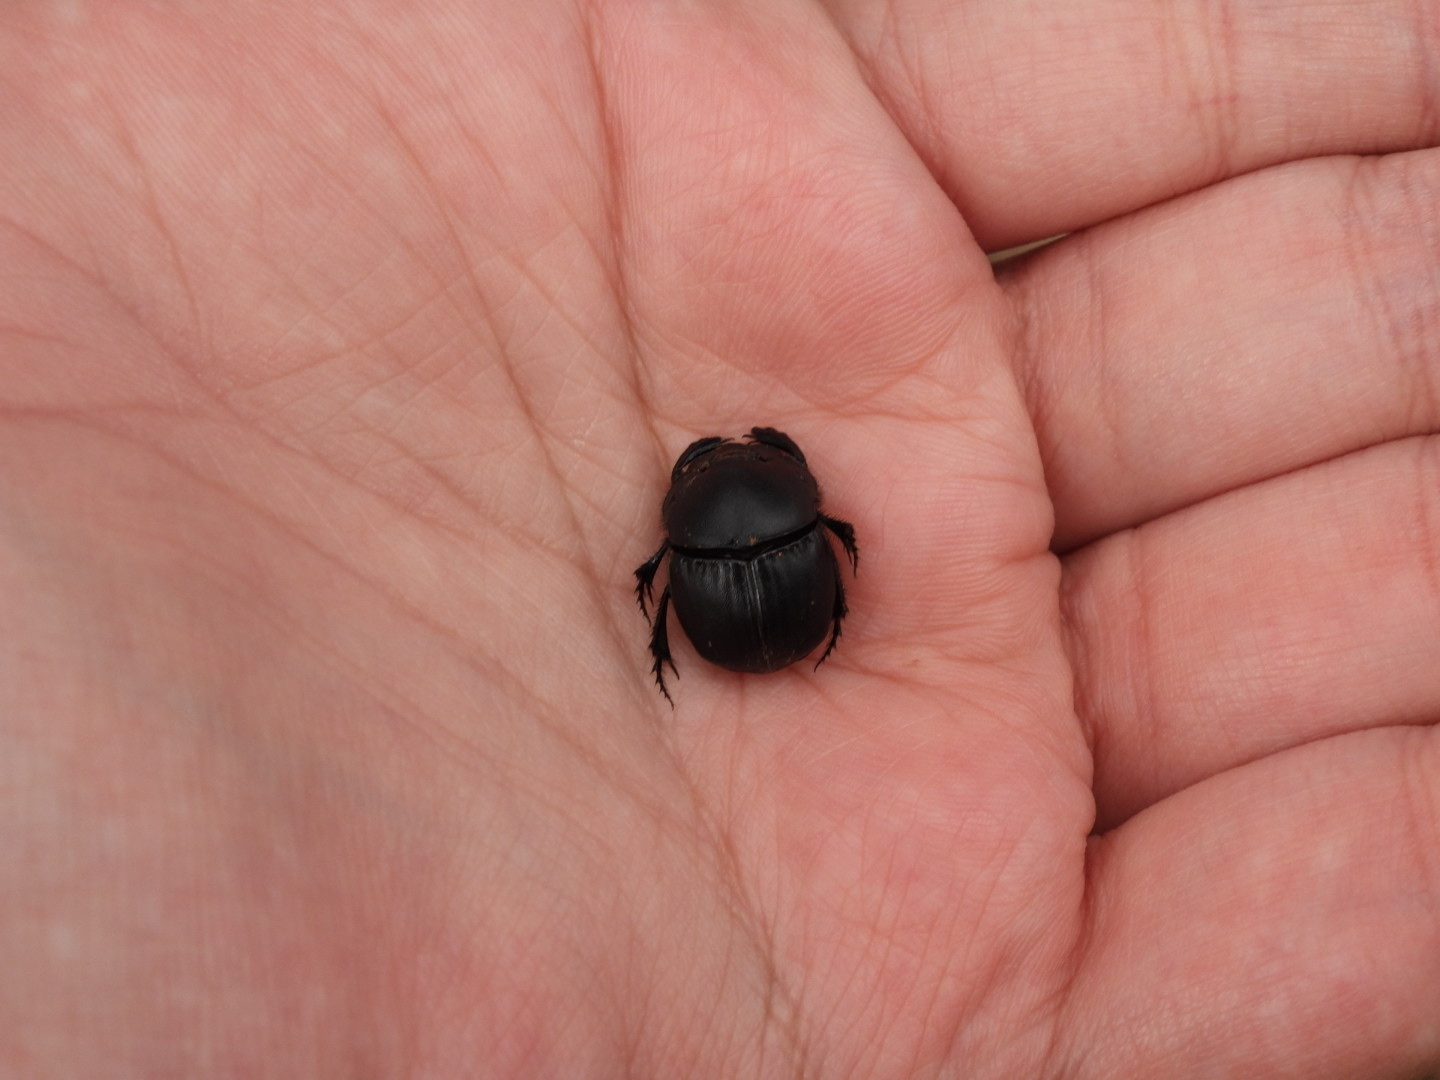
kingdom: Animalia
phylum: Arthropoda
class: Insecta
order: Coleoptera
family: Scarabaeidae
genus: Phanaeus
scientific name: Phanaeus texensis
